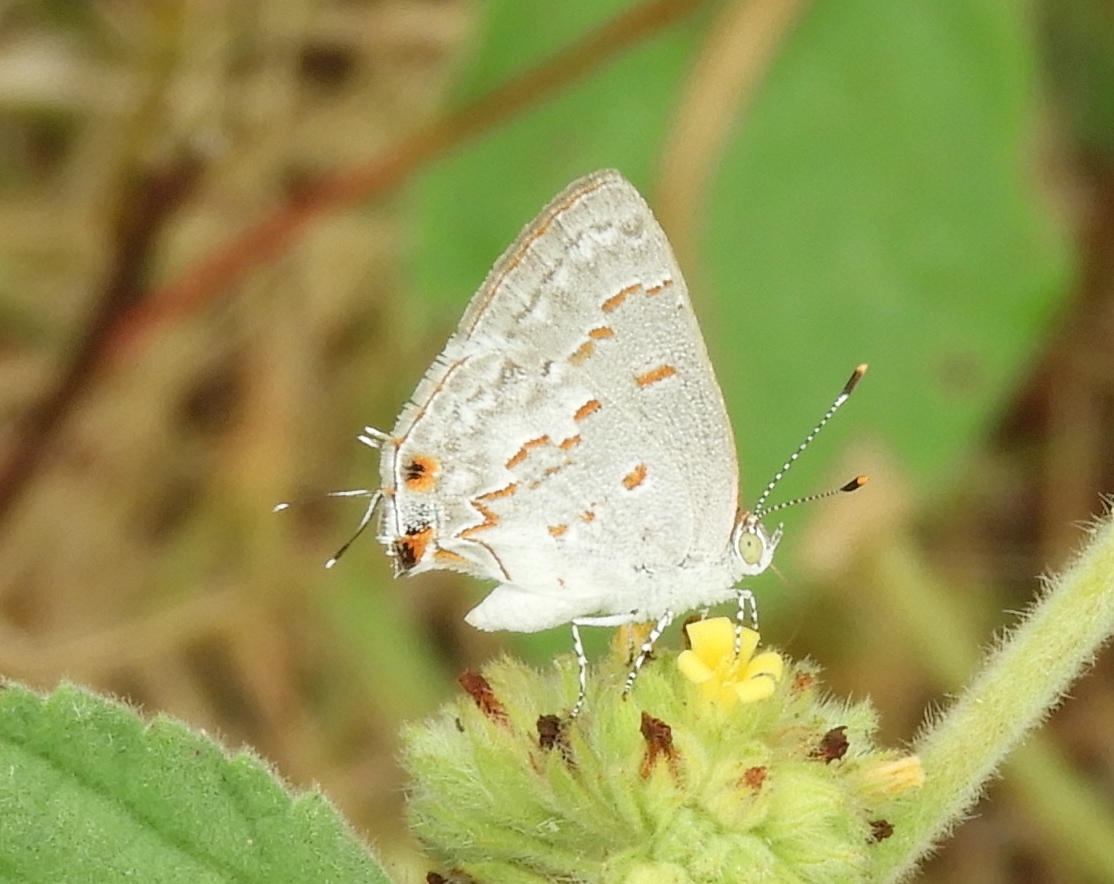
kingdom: Animalia
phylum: Arthropoda
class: Insecta
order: Lepidoptera
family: Lycaenidae
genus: Ministrymon
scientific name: Ministrymon
